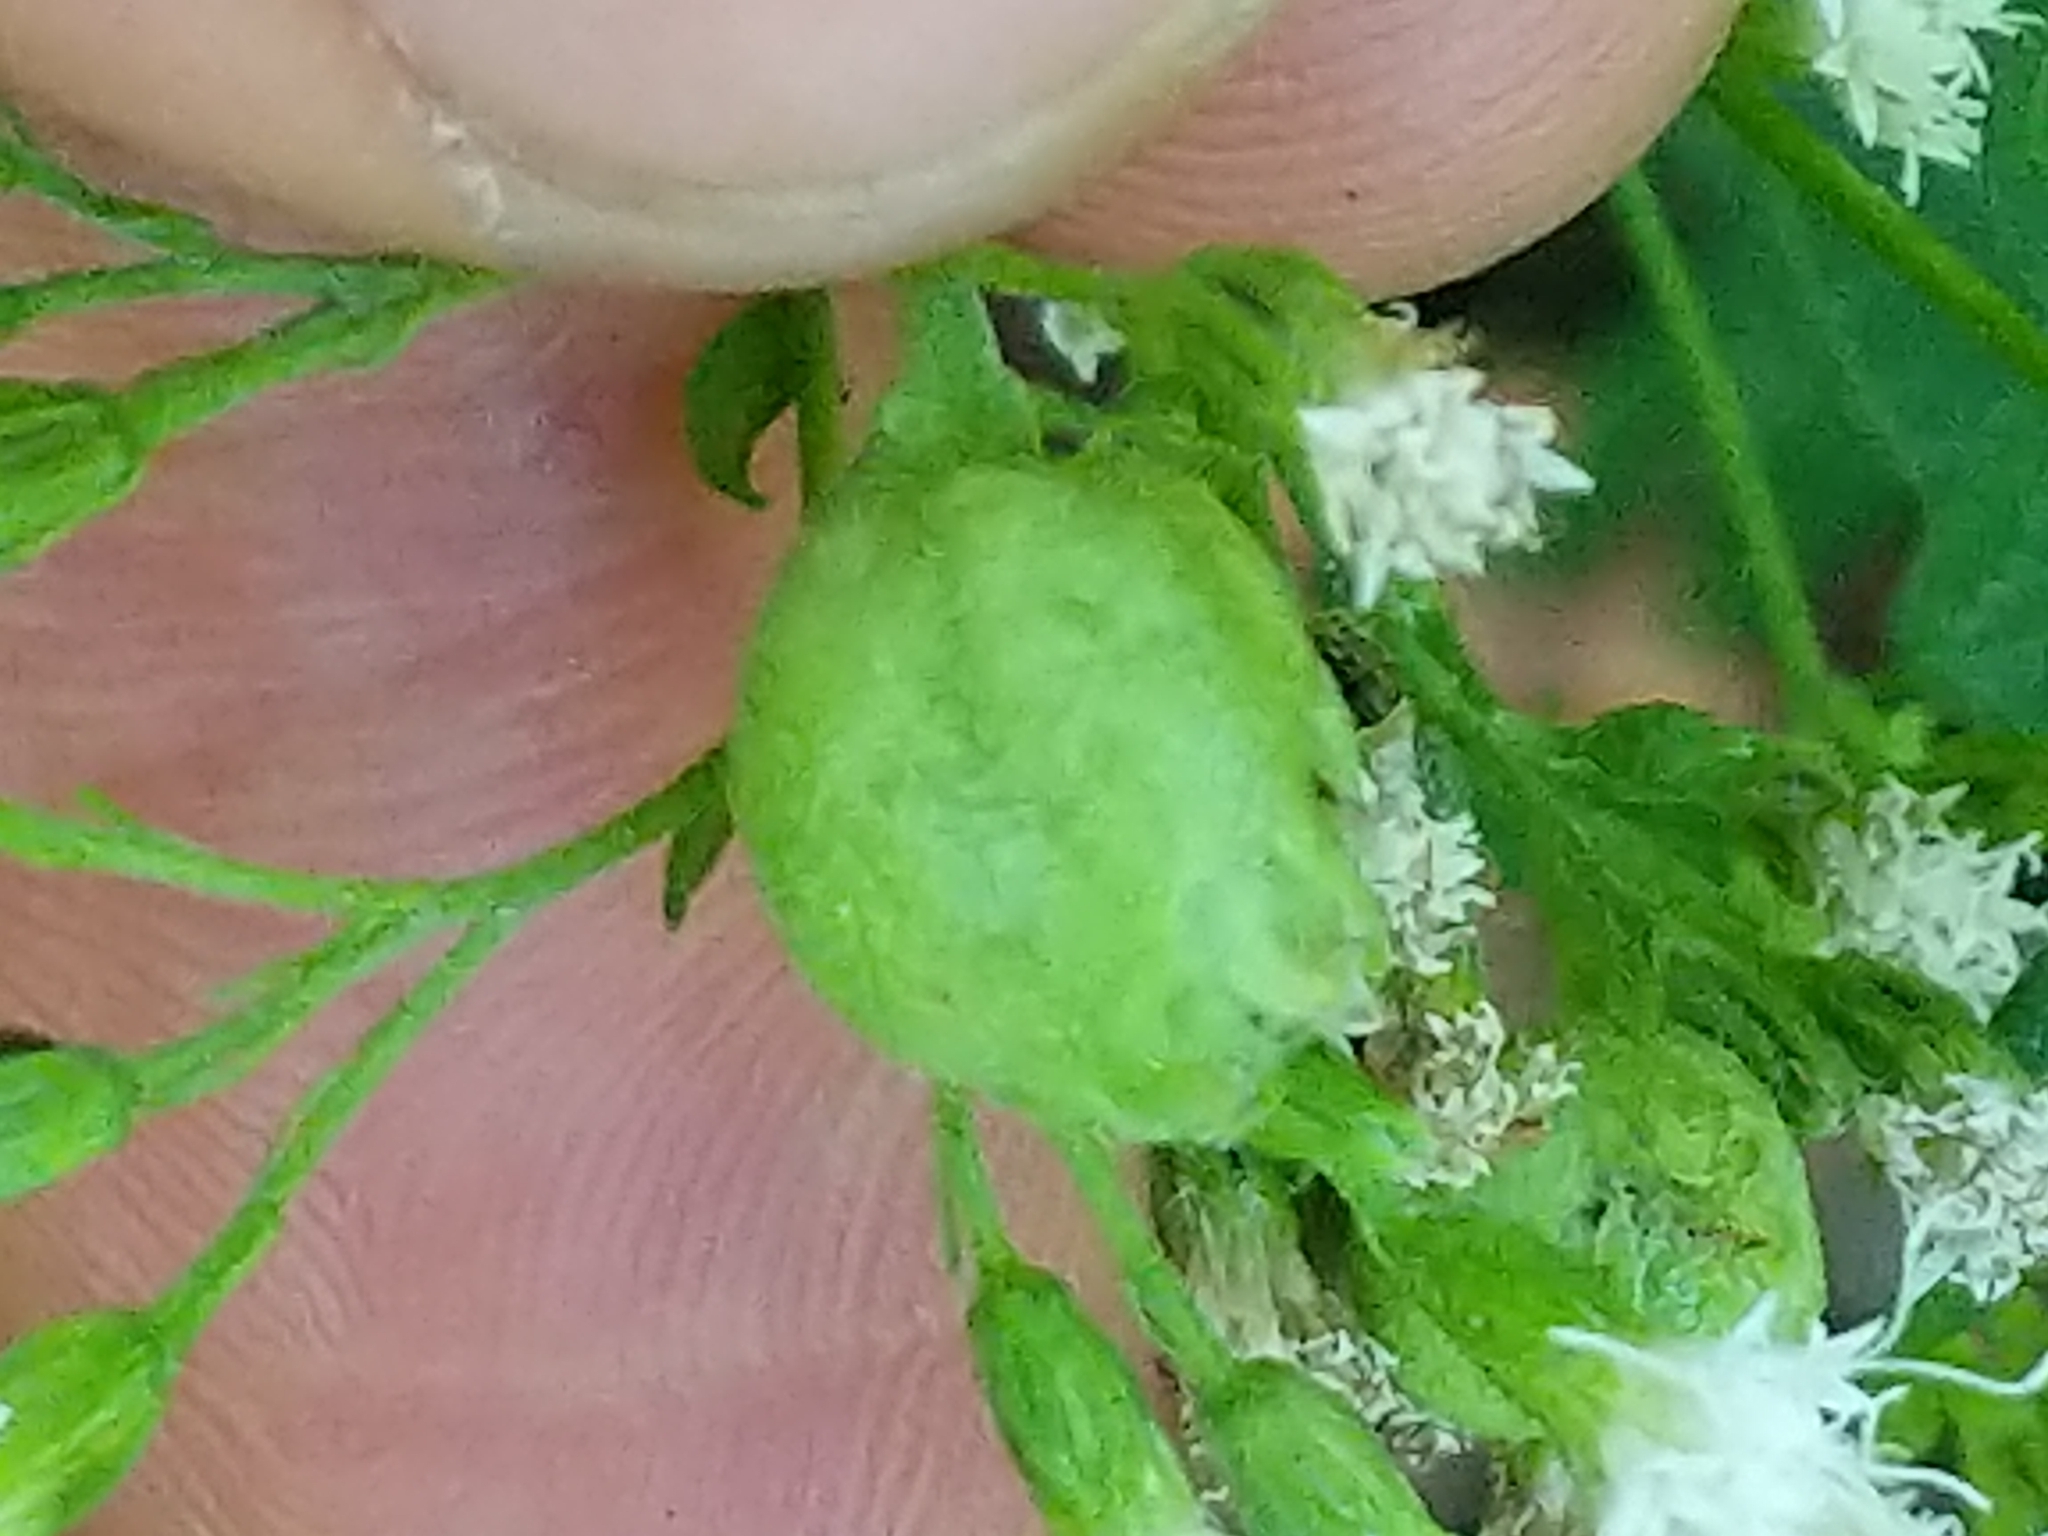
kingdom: Animalia
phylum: Arthropoda
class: Insecta
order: Diptera
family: Cecidomyiidae
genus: Schizomyia
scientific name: Schizomyia eupatoriflorae
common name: Boneset flower gall midge
